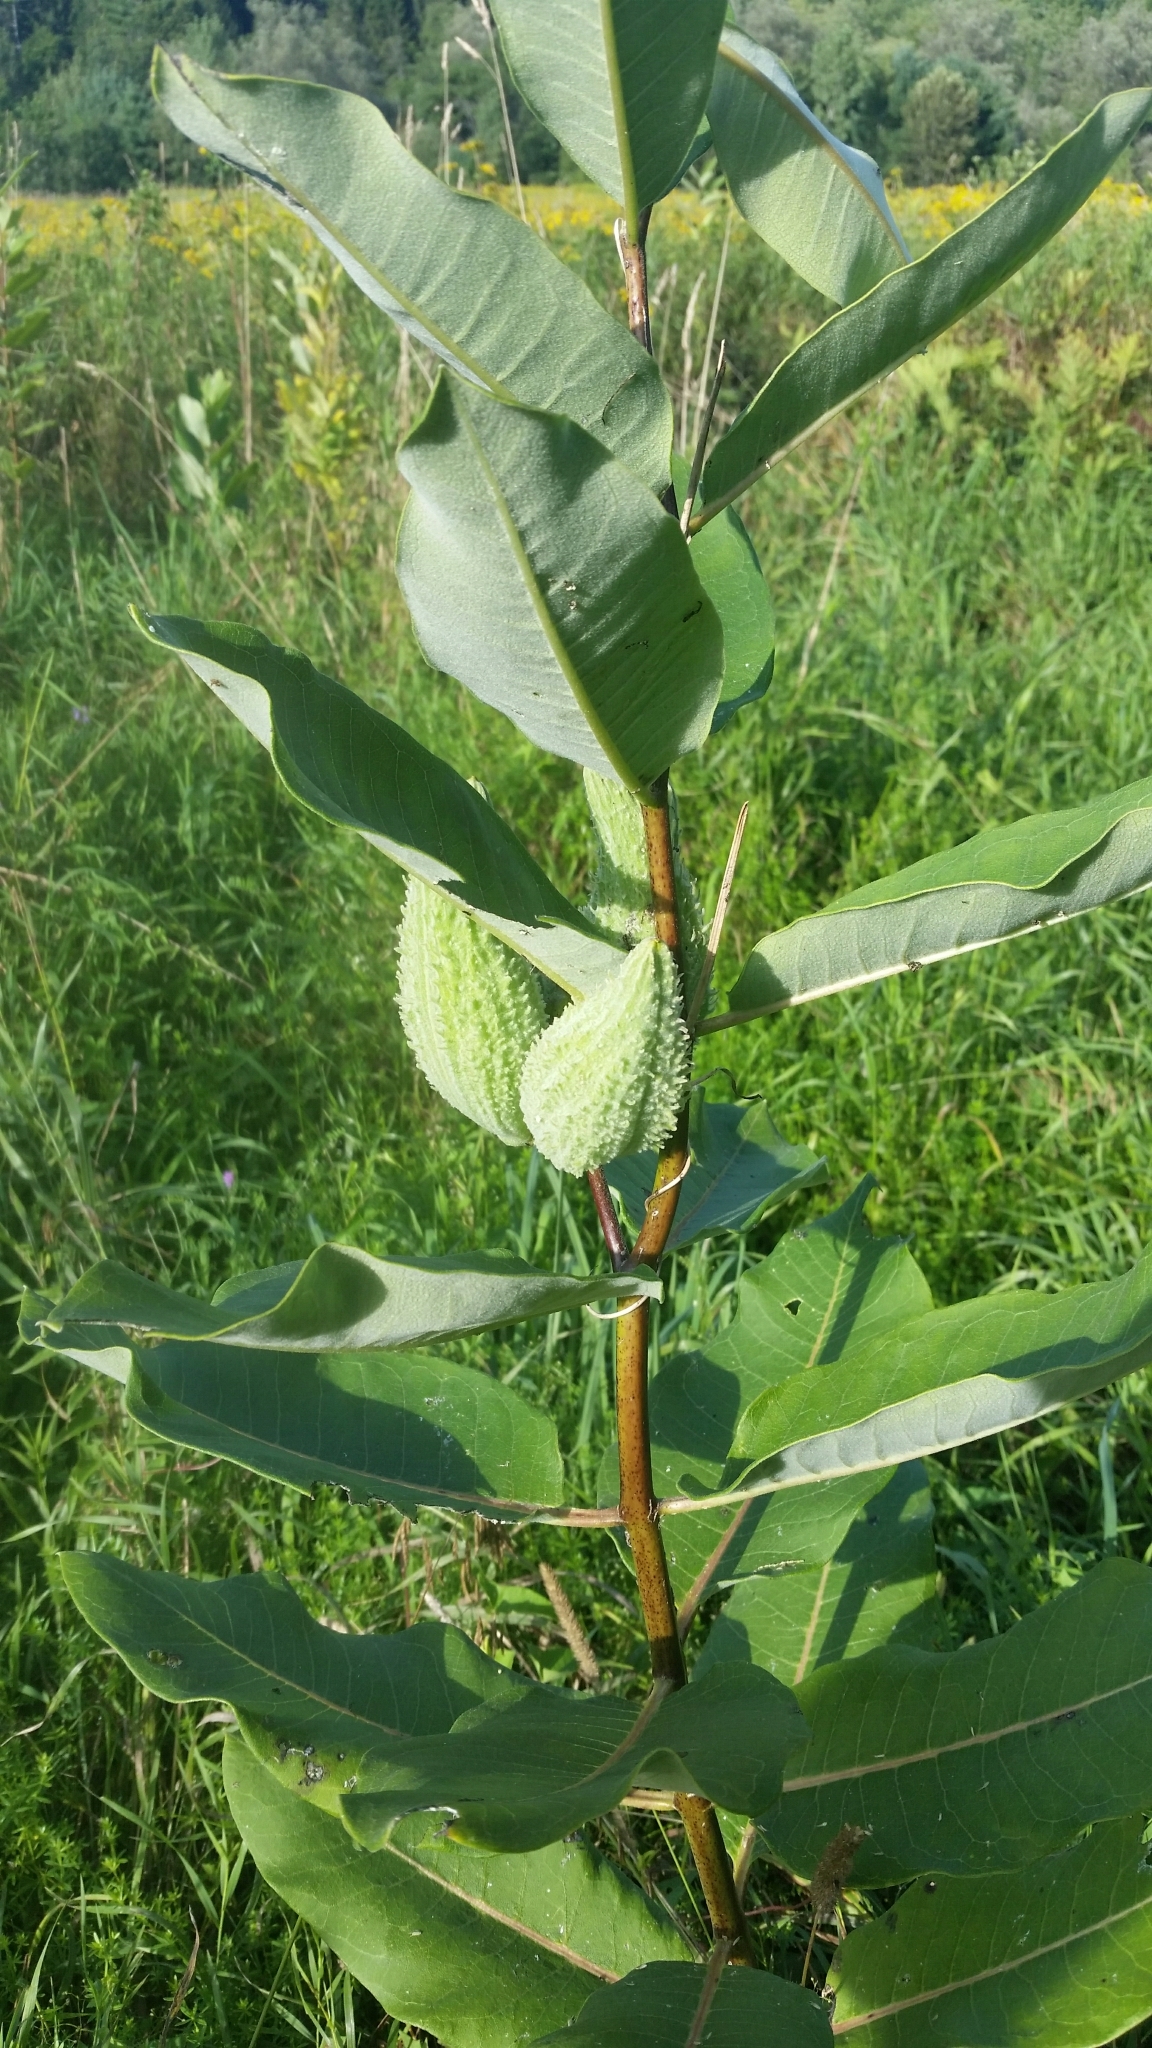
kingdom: Plantae
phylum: Tracheophyta
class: Magnoliopsida
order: Gentianales
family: Apocynaceae
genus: Asclepias
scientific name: Asclepias syriaca
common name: Common milkweed
